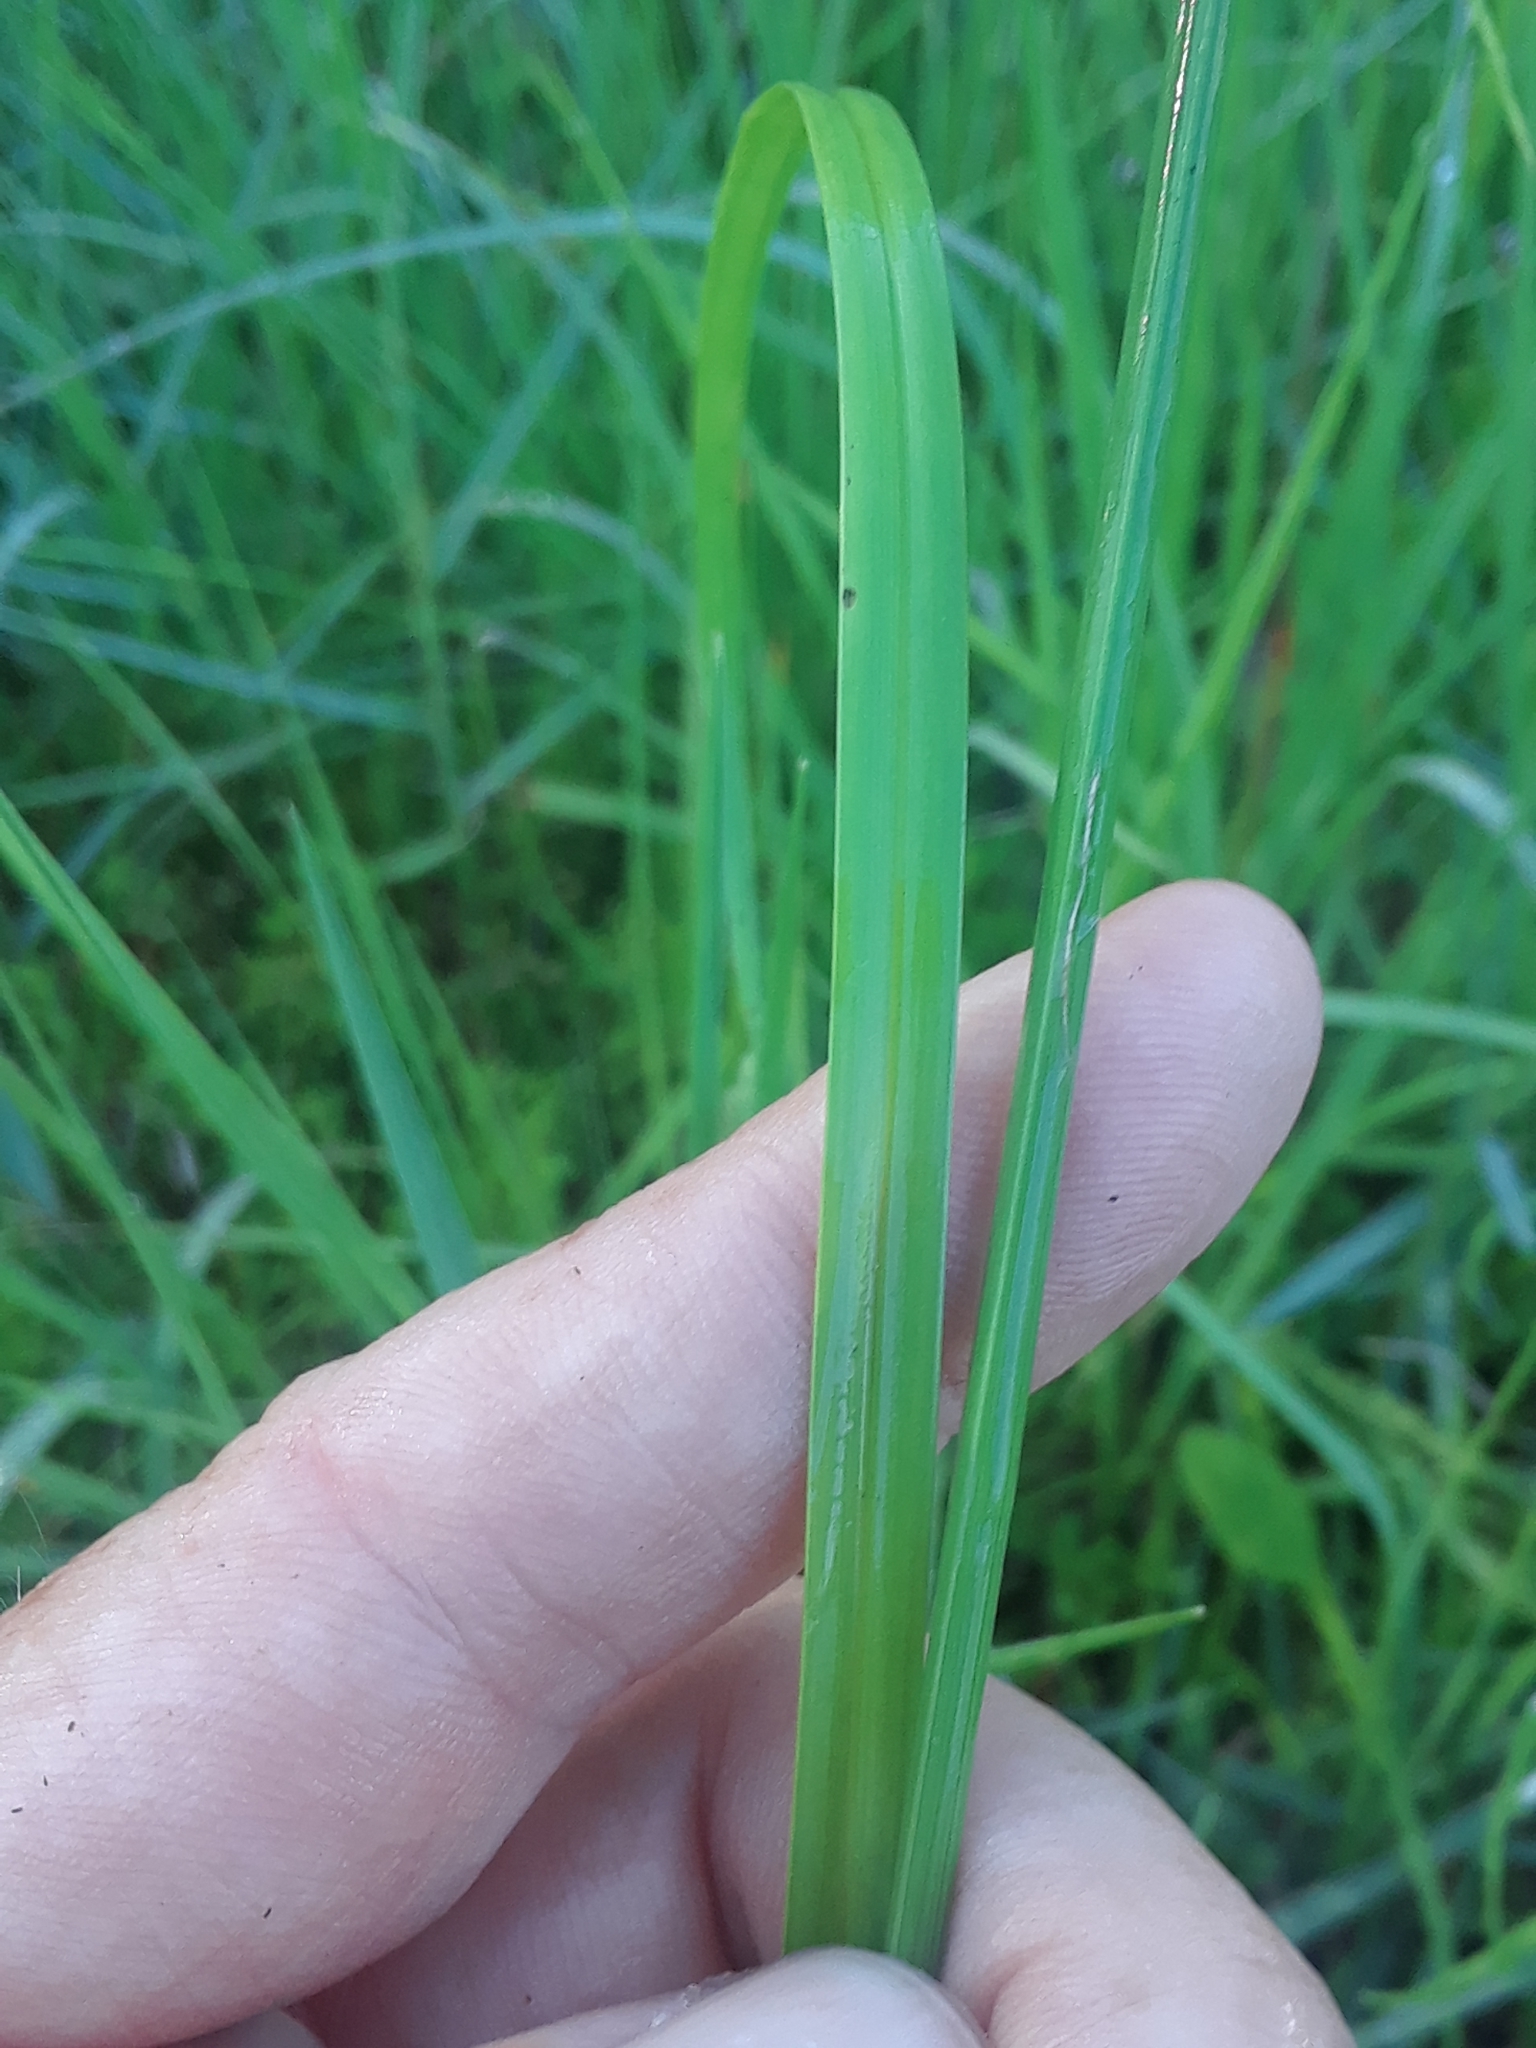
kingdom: Plantae
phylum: Tracheophyta
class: Liliopsida
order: Poales
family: Cyperaceae
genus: Rhynchospora
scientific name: Rhynchospora colorata
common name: Star sedge
